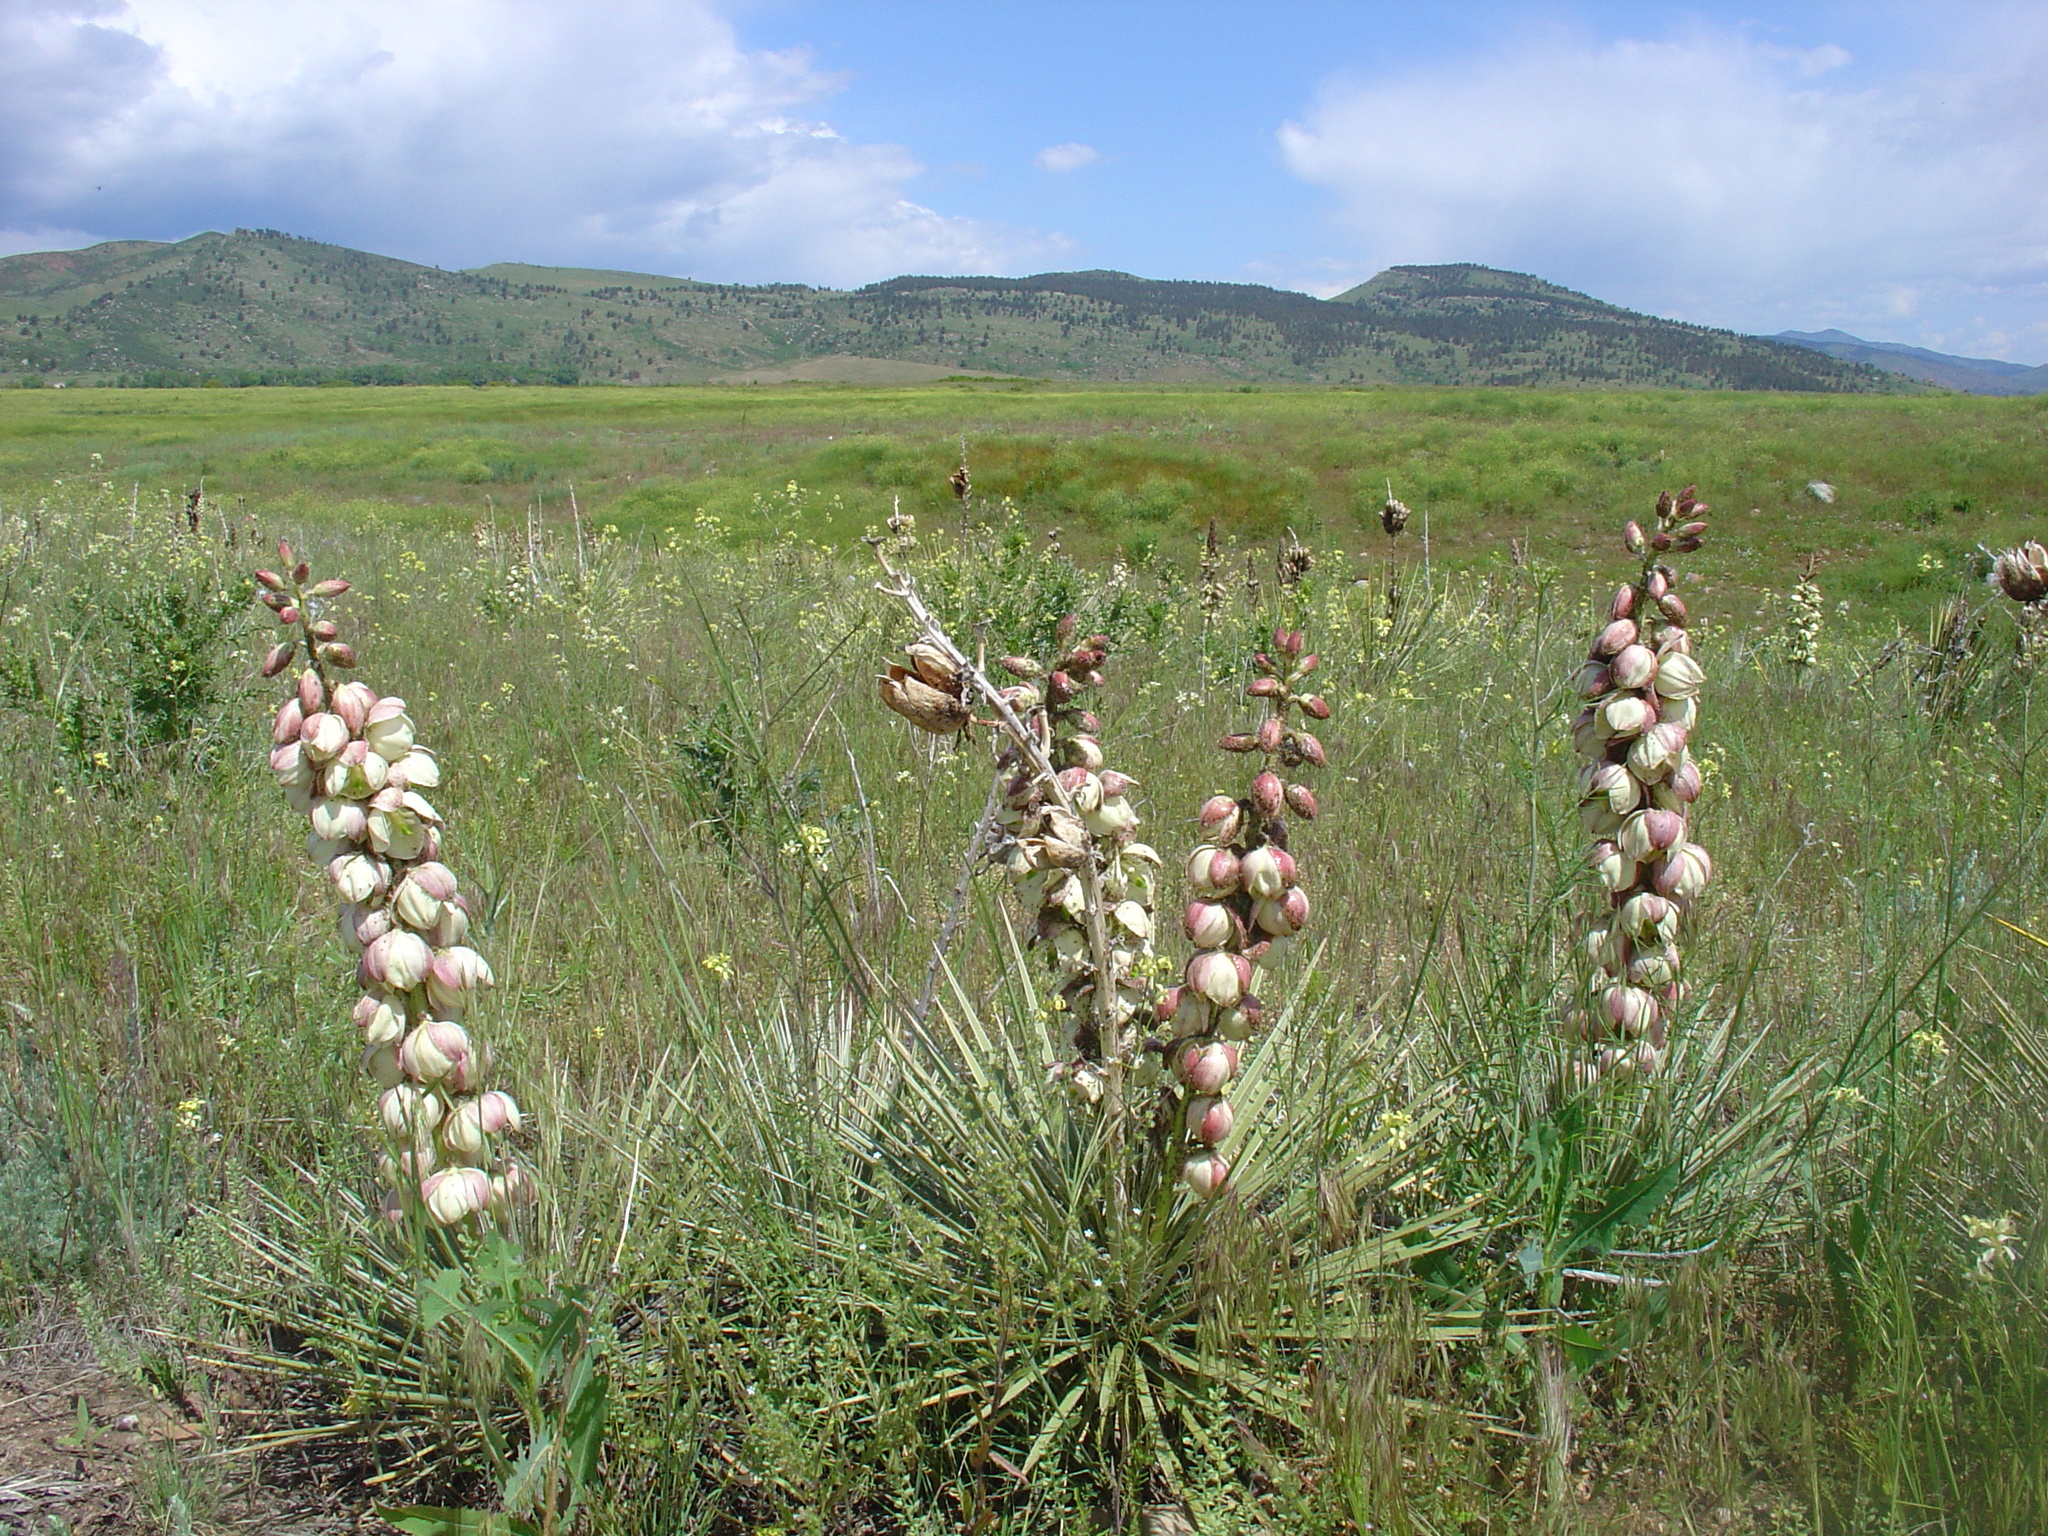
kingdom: Plantae
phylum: Tracheophyta
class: Liliopsida
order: Asparagales
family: Asparagaceae
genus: Yucca
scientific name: Yucca glauca
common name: Great plains yucca
